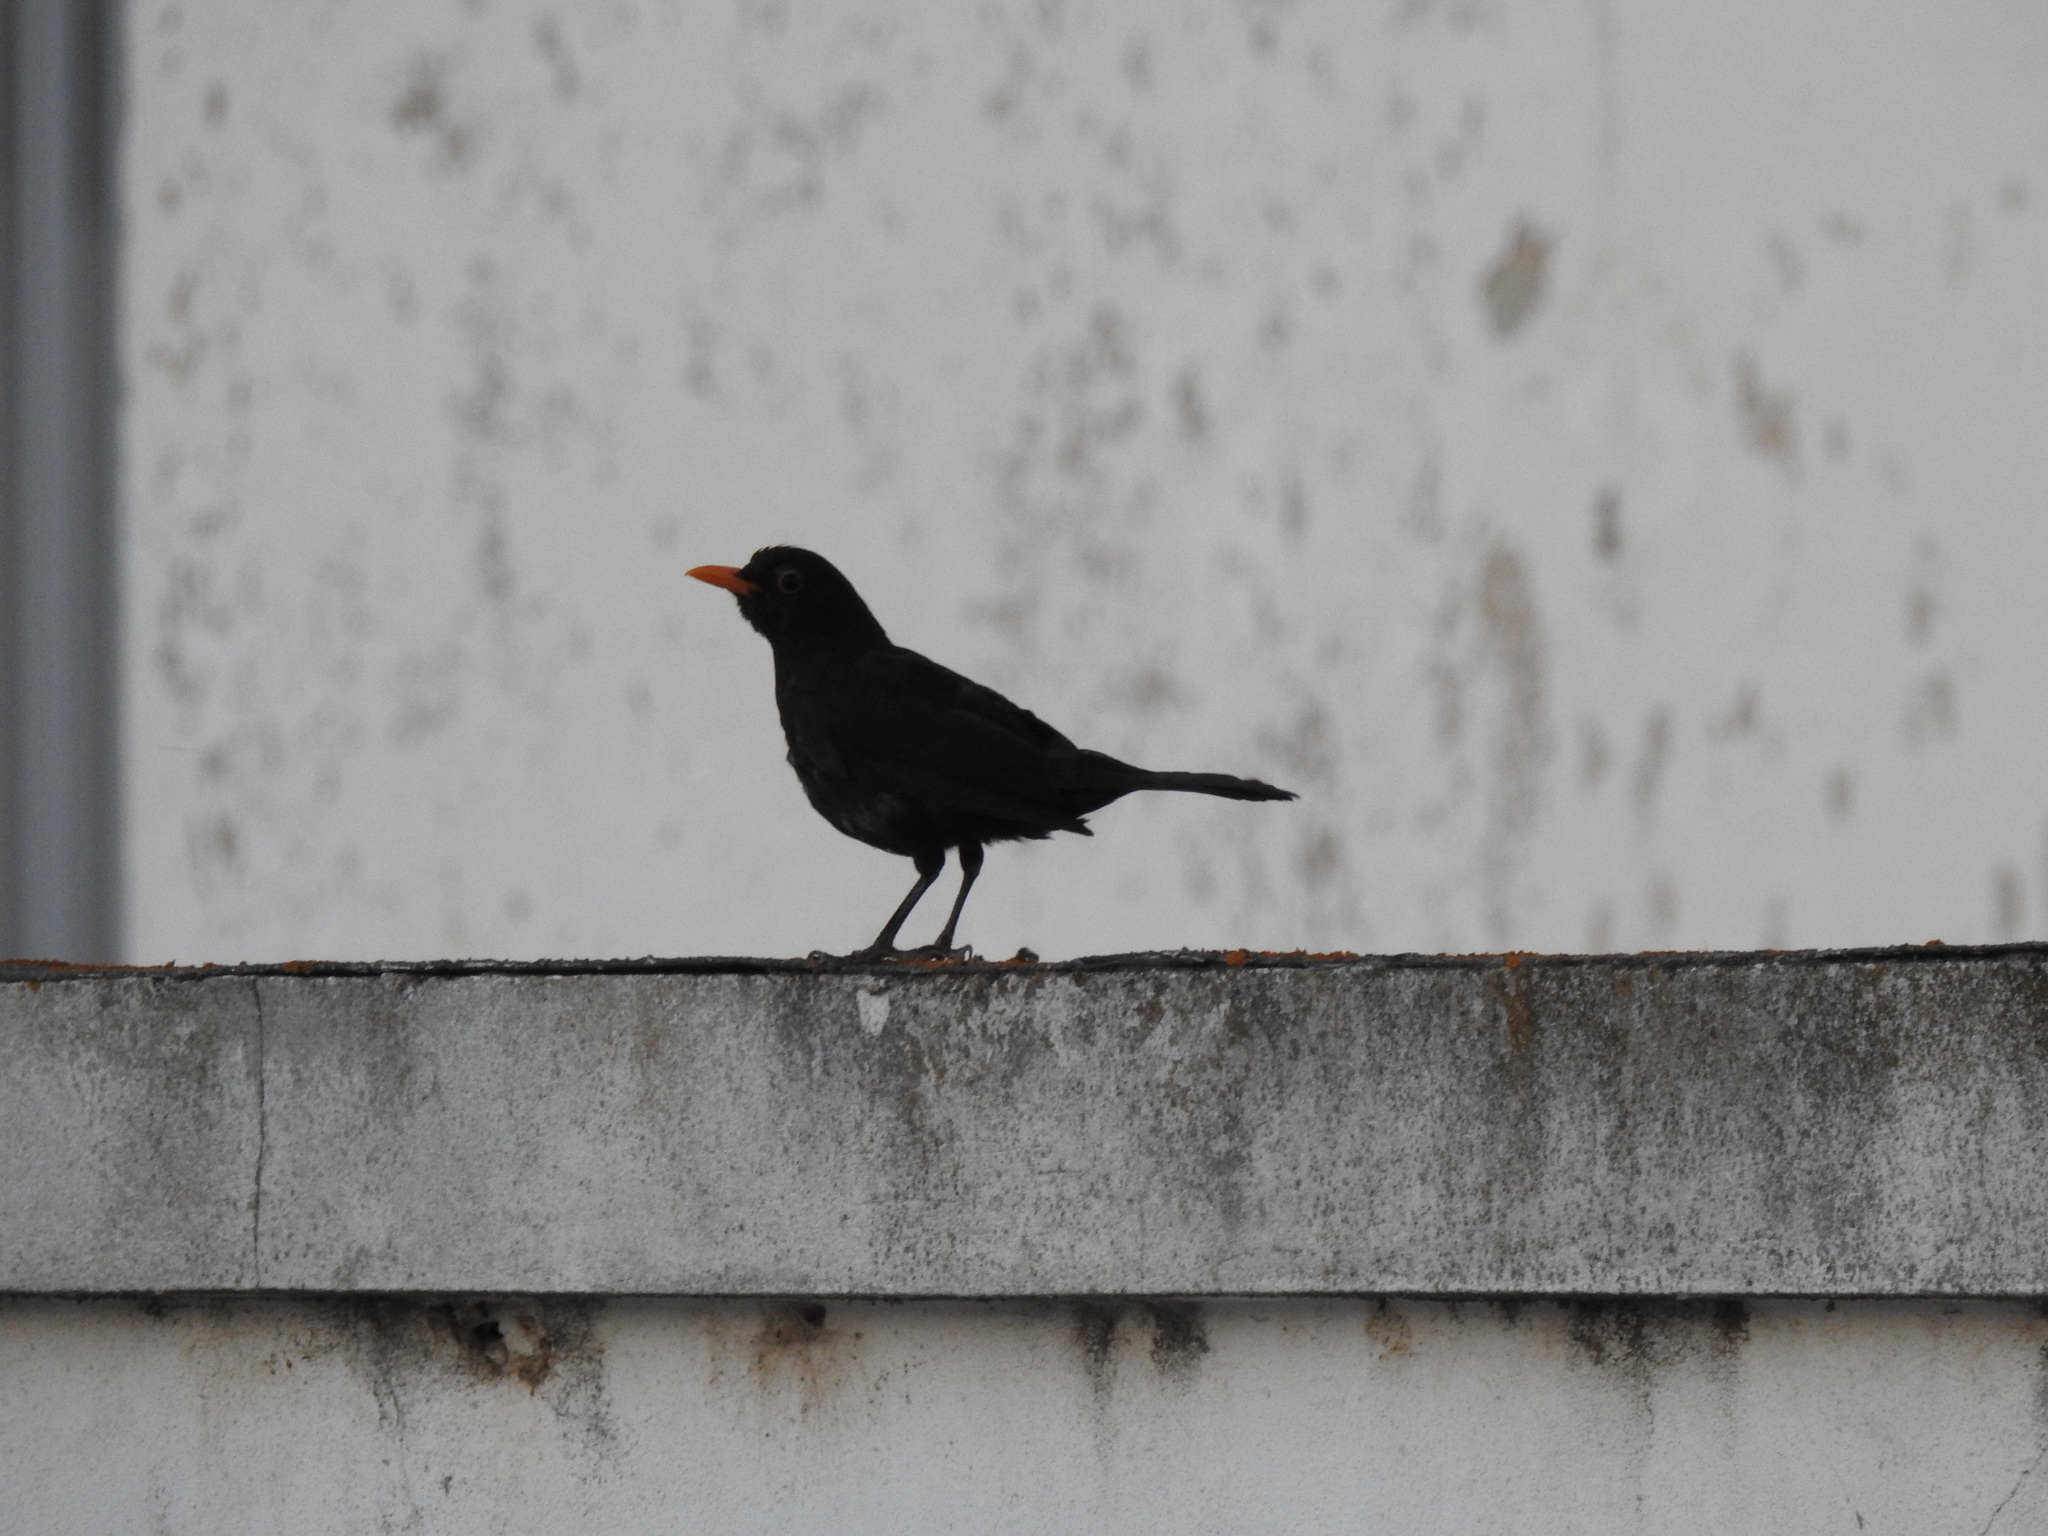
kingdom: Animalia
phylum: Chordata
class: Aves
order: Passeriformes
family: Turdidae
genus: Turdus
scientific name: Turdus merula
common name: Common blackbird
